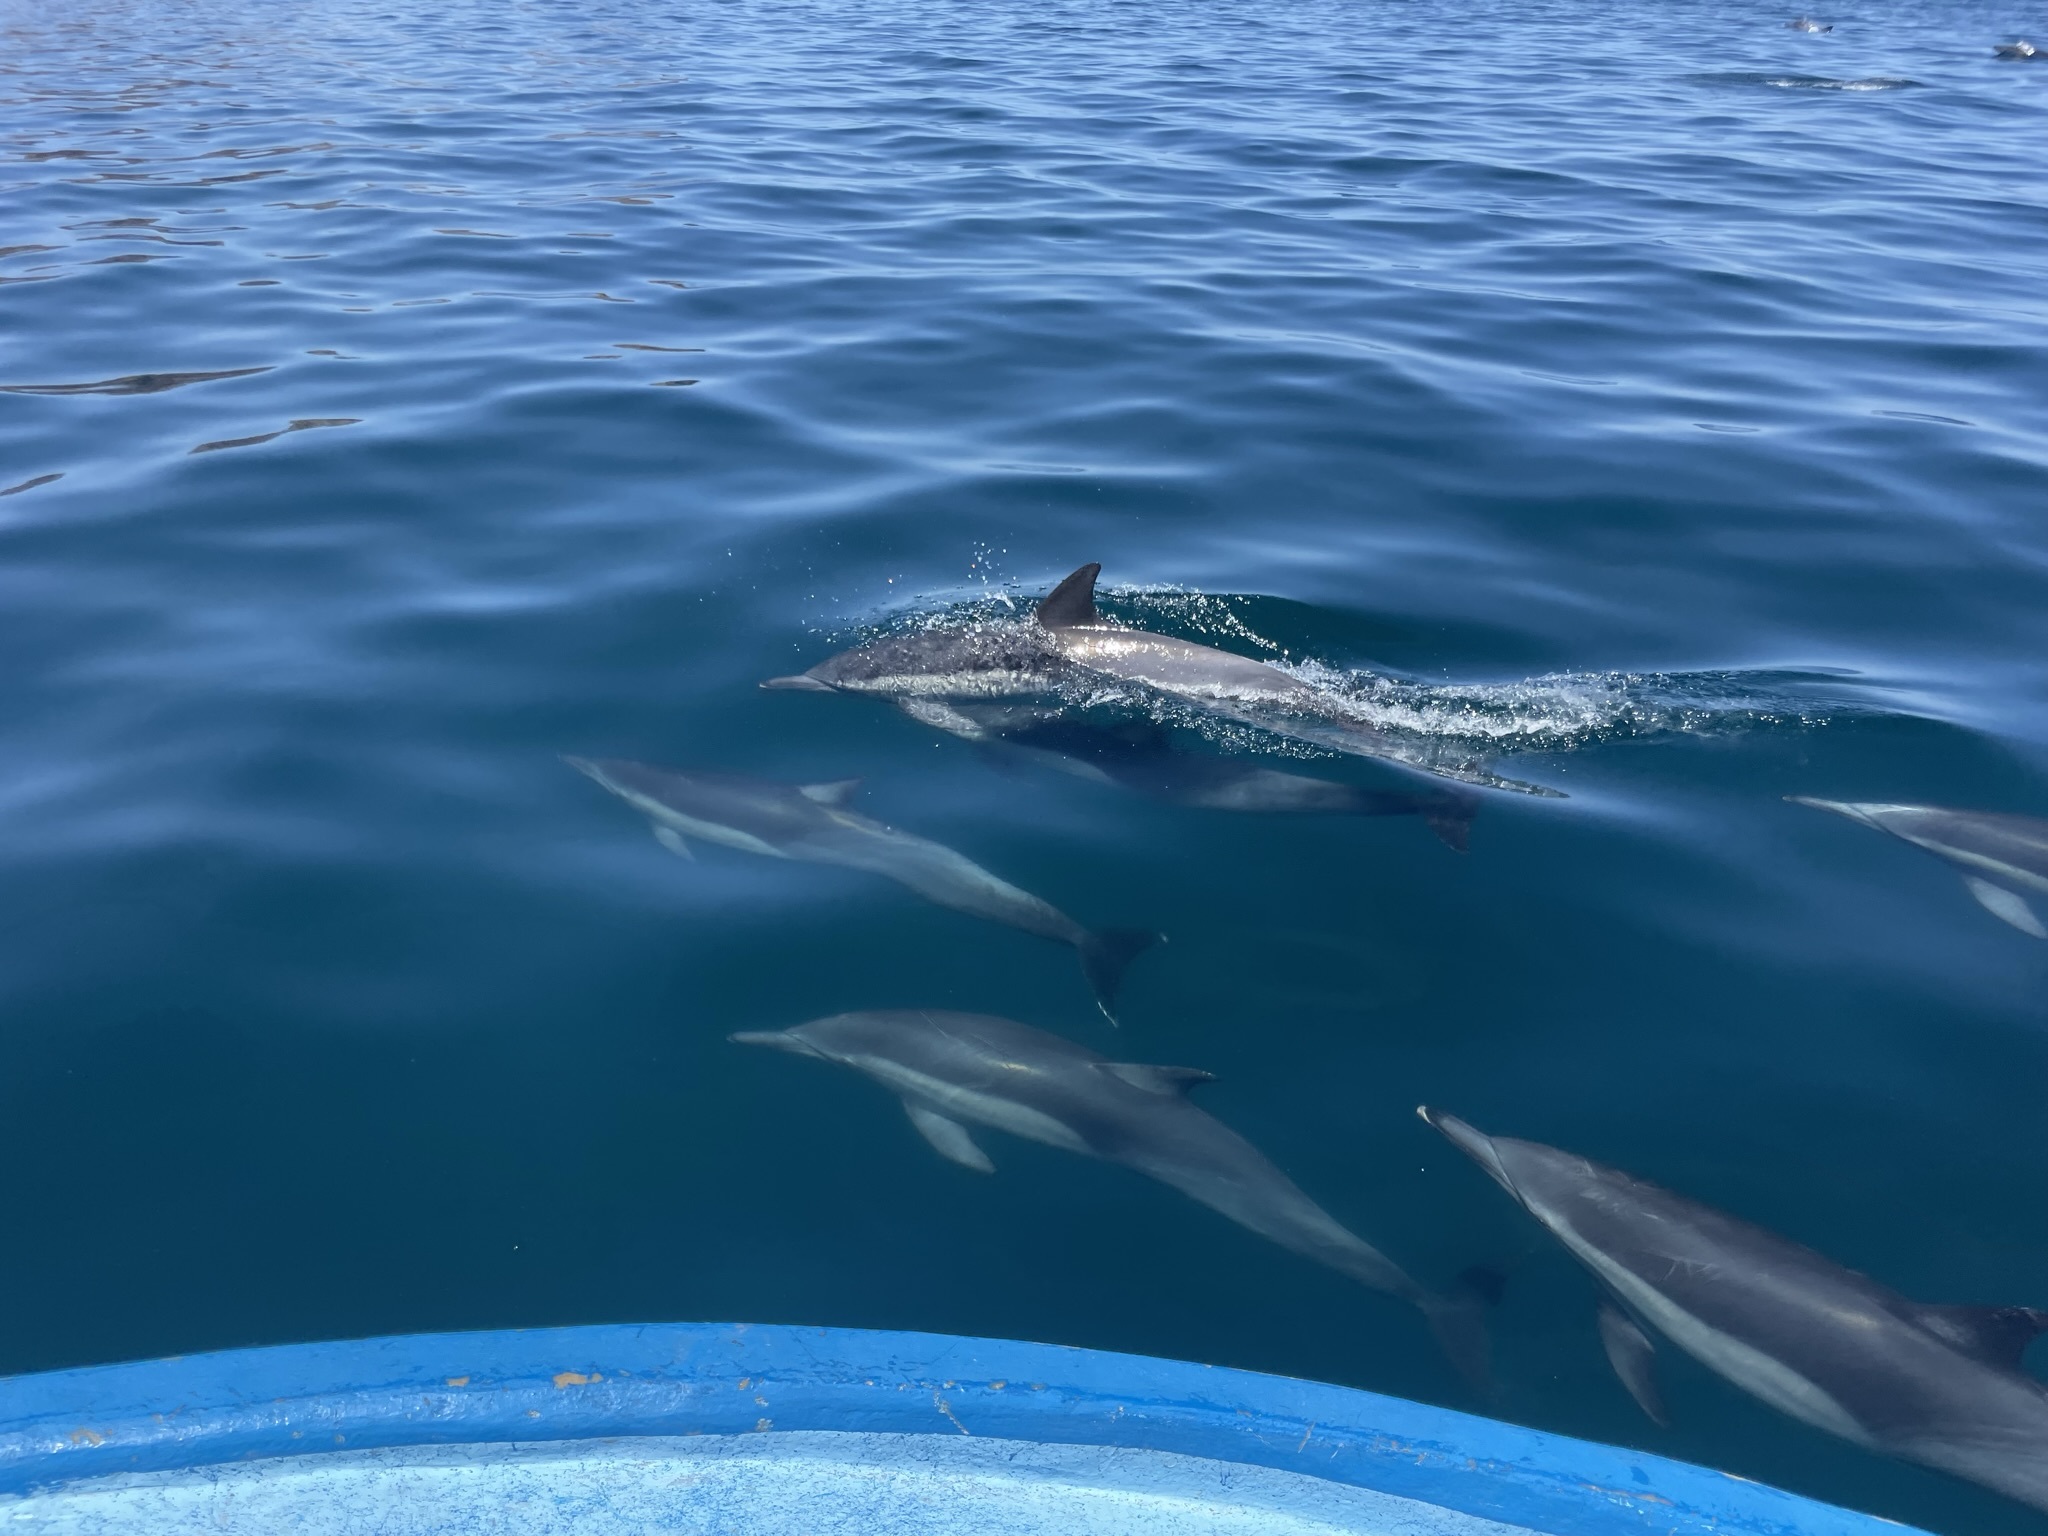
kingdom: Animalia
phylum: Chordata
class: Mammalia
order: Cetacea
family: Delphinidae
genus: Delphinus
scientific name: Delphinus delphis
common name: Common dolphin
